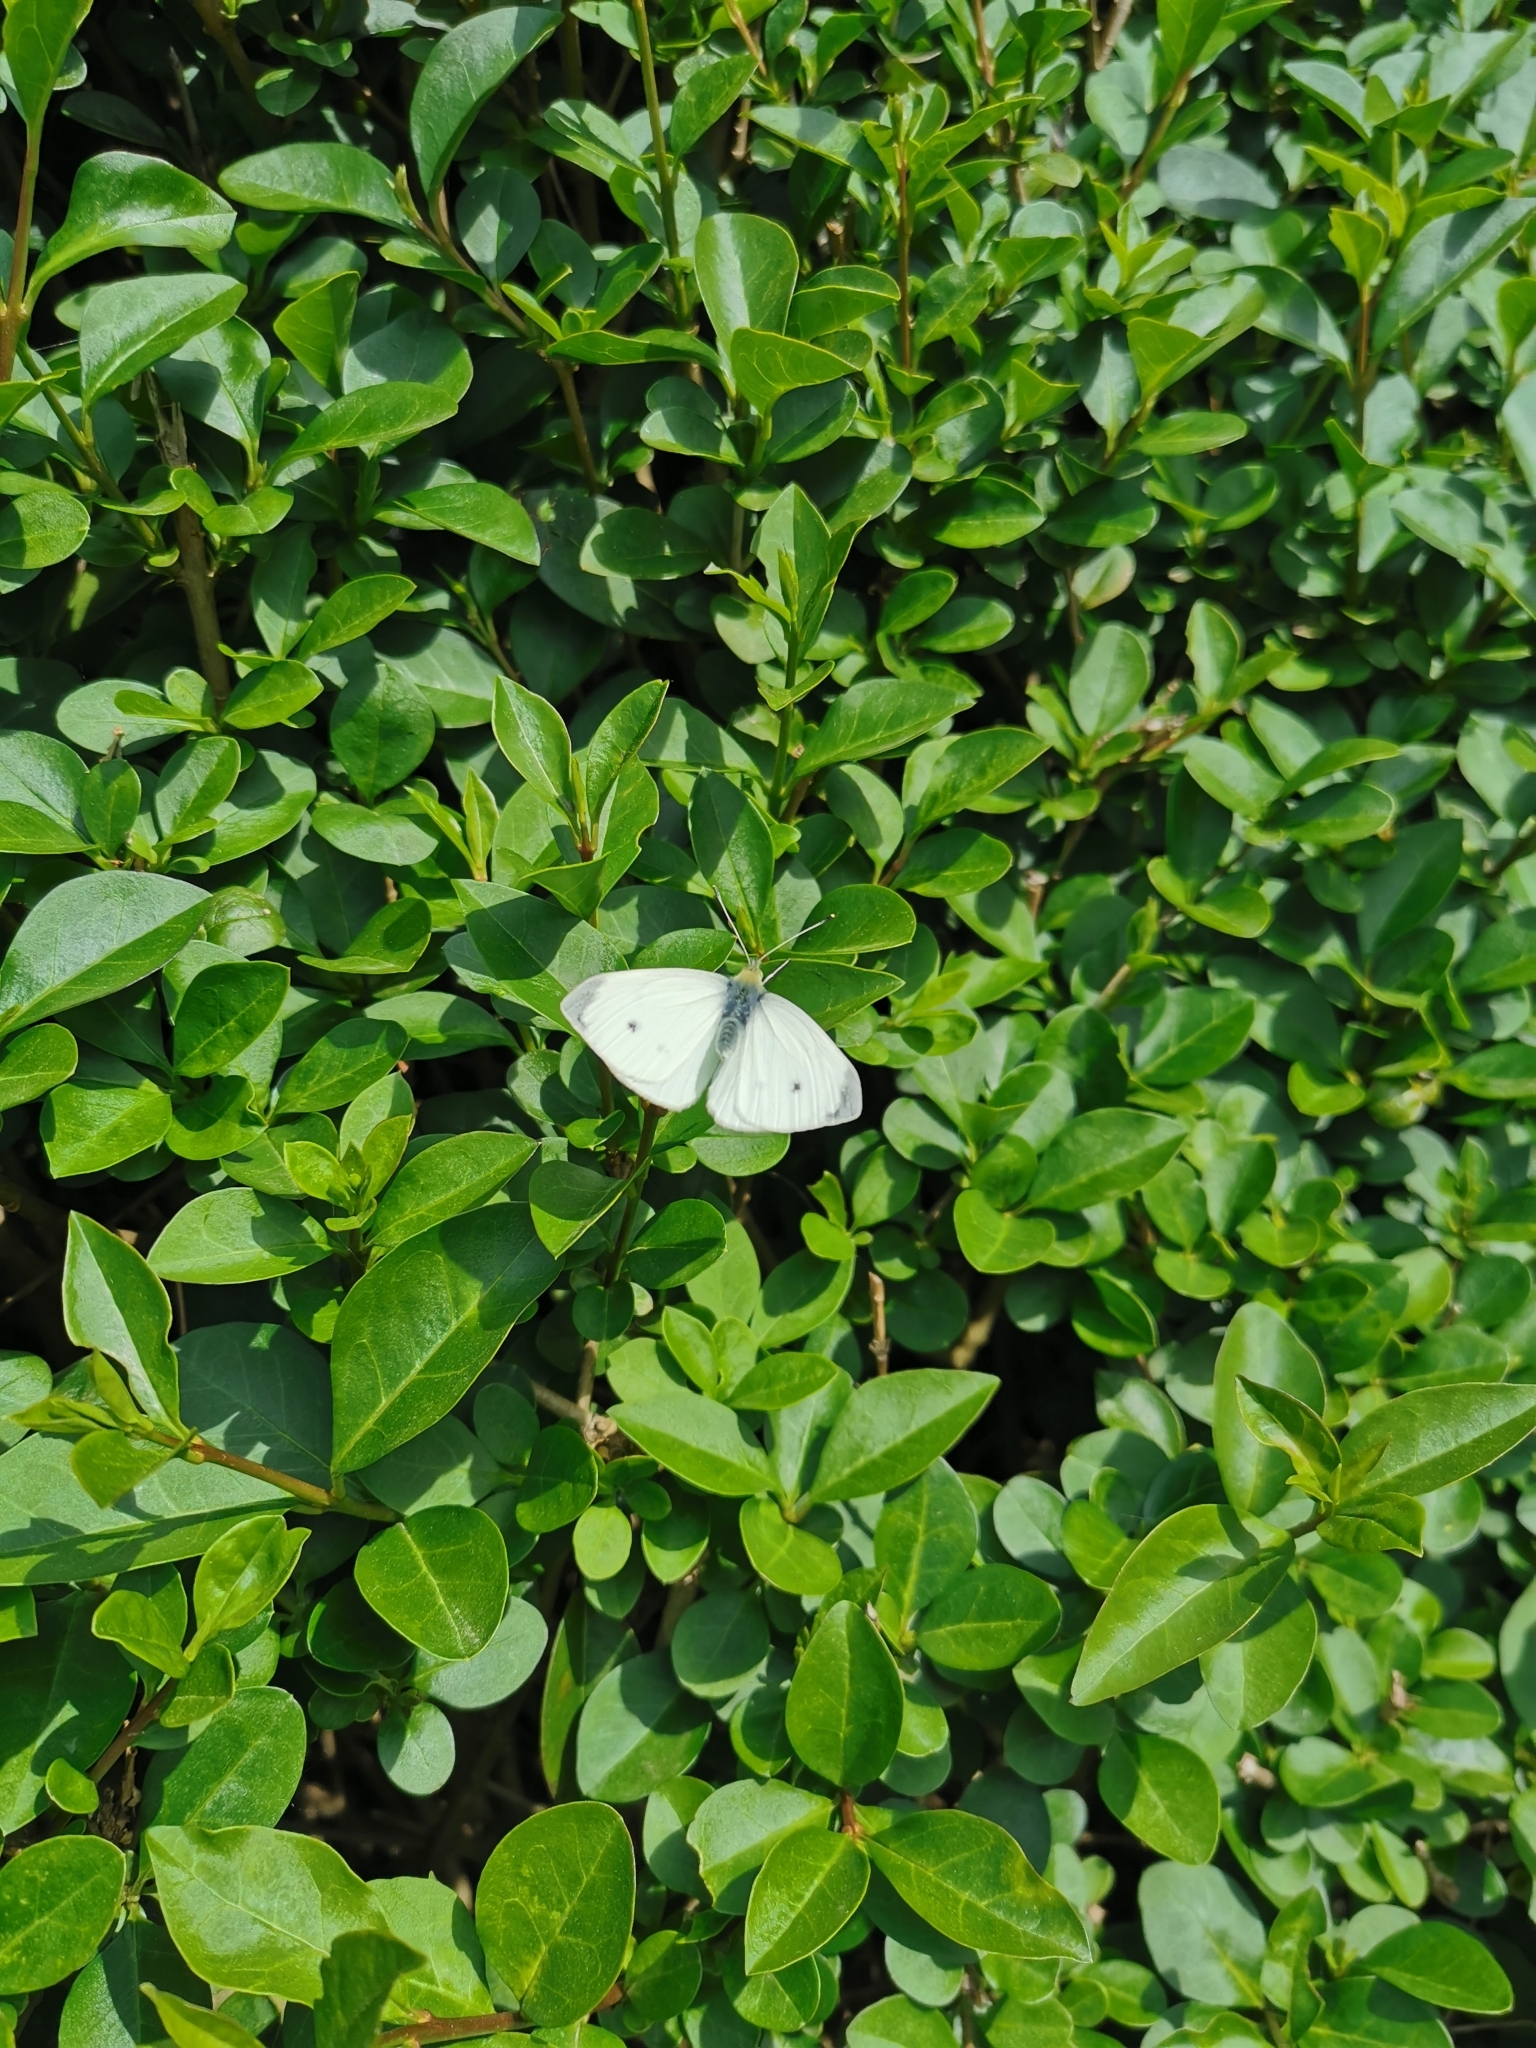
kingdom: Animalia
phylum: Arthropoda
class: Insecta
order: Lepidoptera
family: Pieridae
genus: Pieris
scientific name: Pieris rapae
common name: Small white
